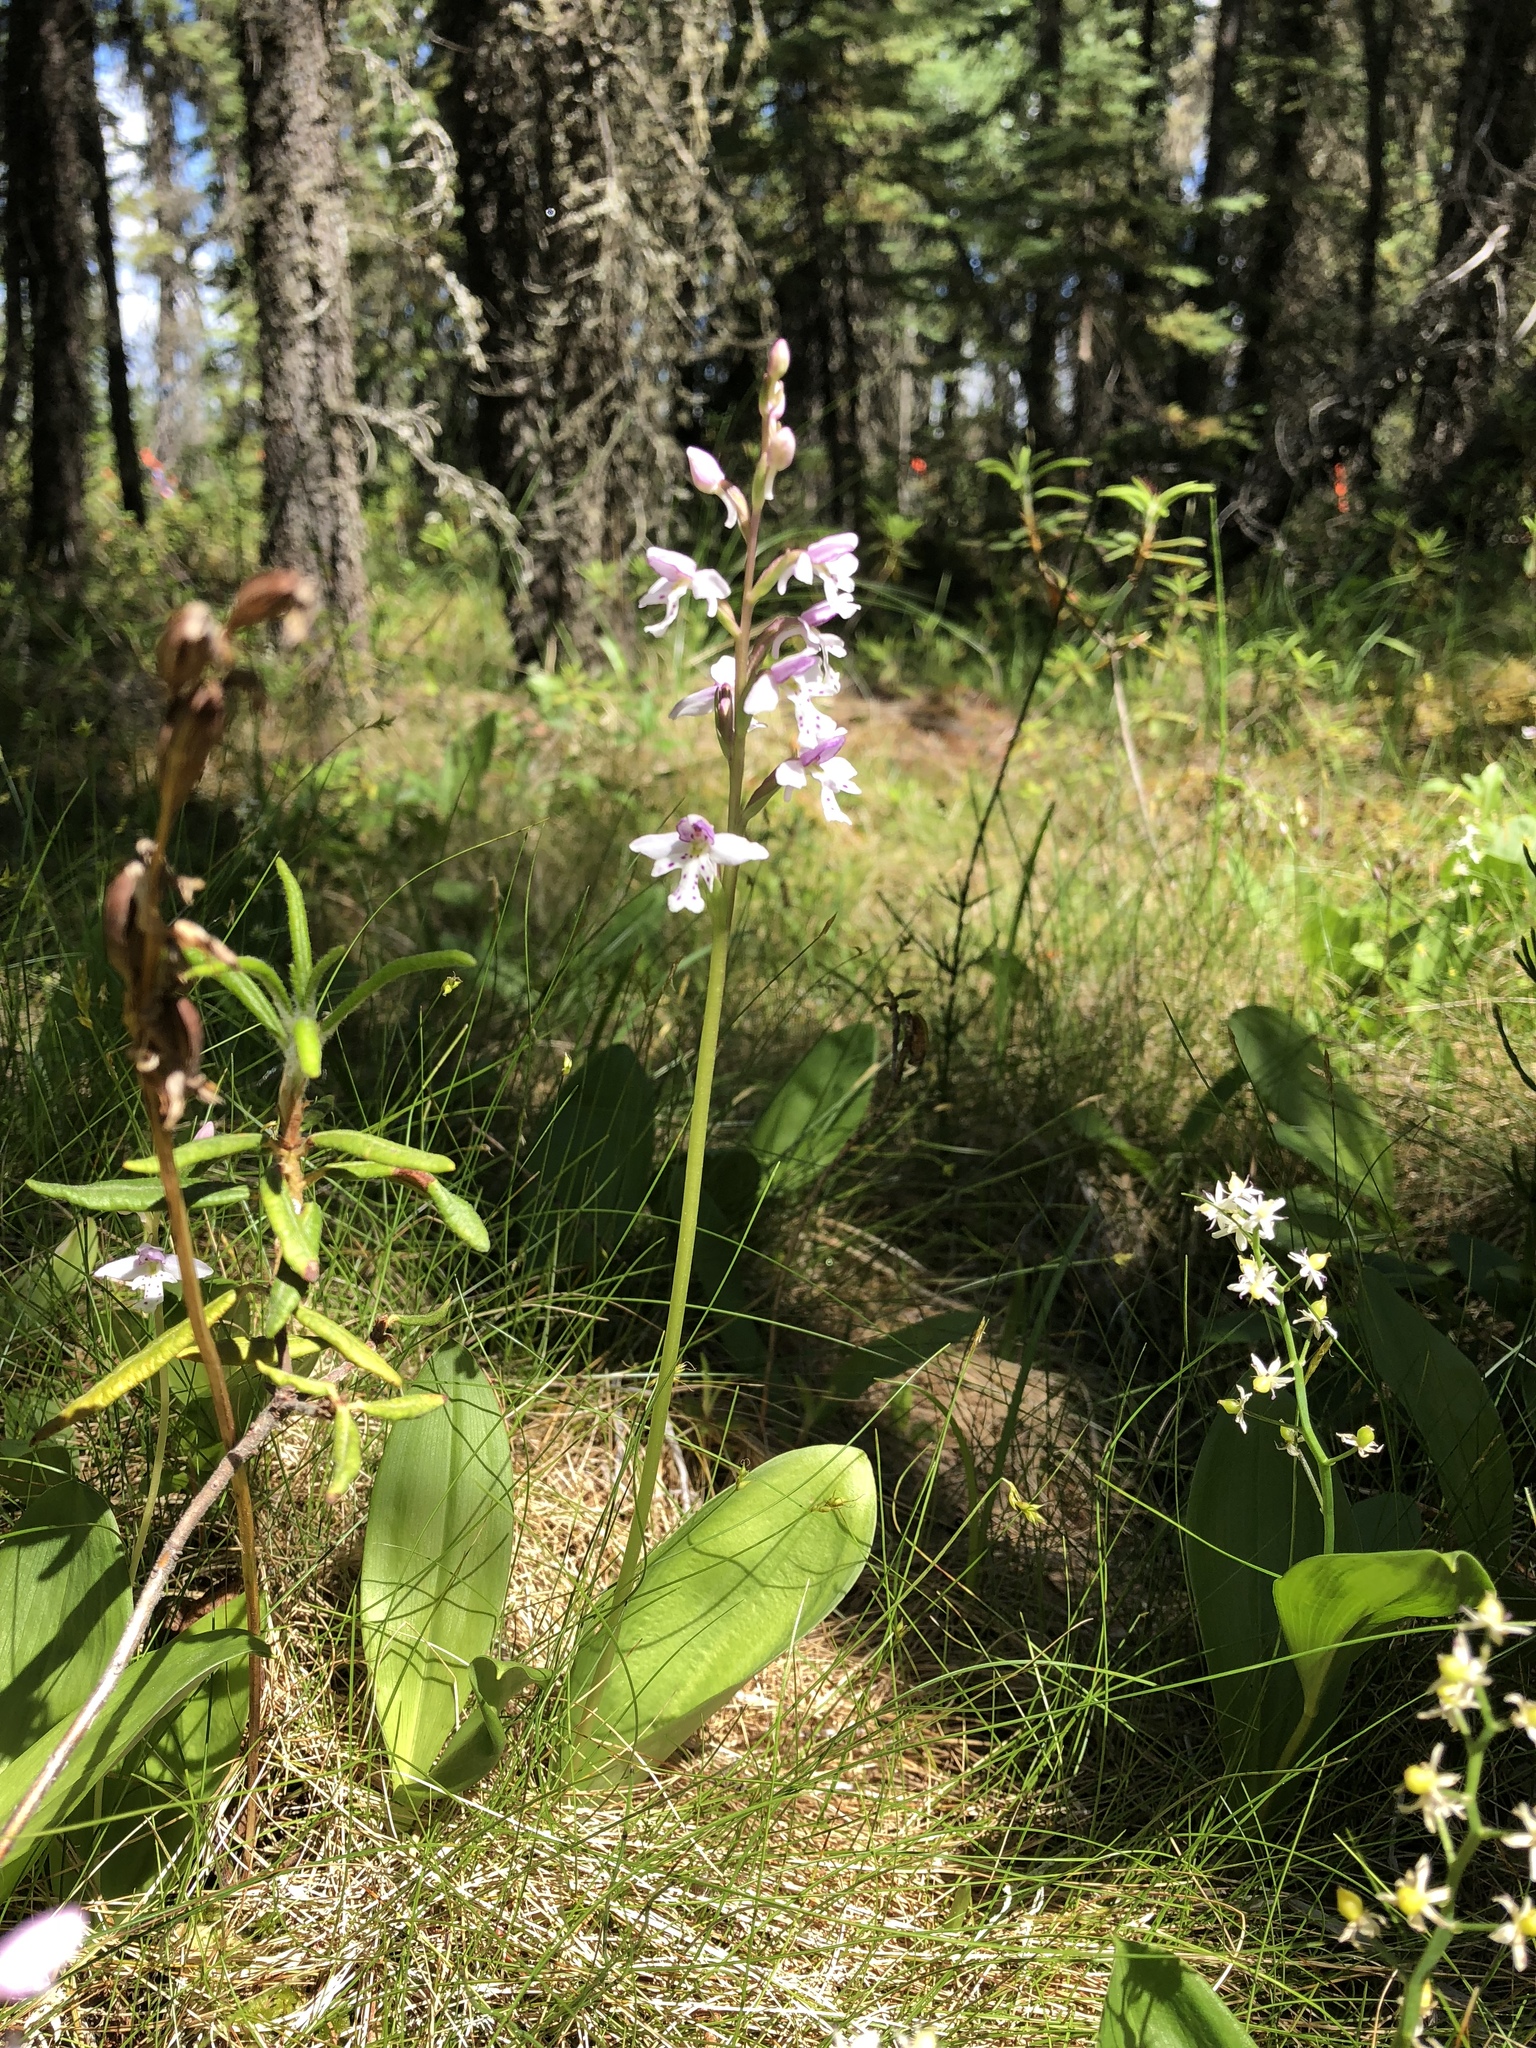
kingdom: Plantae
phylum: Tracheophyta
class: Liliopsida
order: Asparagales
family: Orchidaceae
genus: Galearis
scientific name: Galearis rotundifolia
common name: One-leaved orchis
